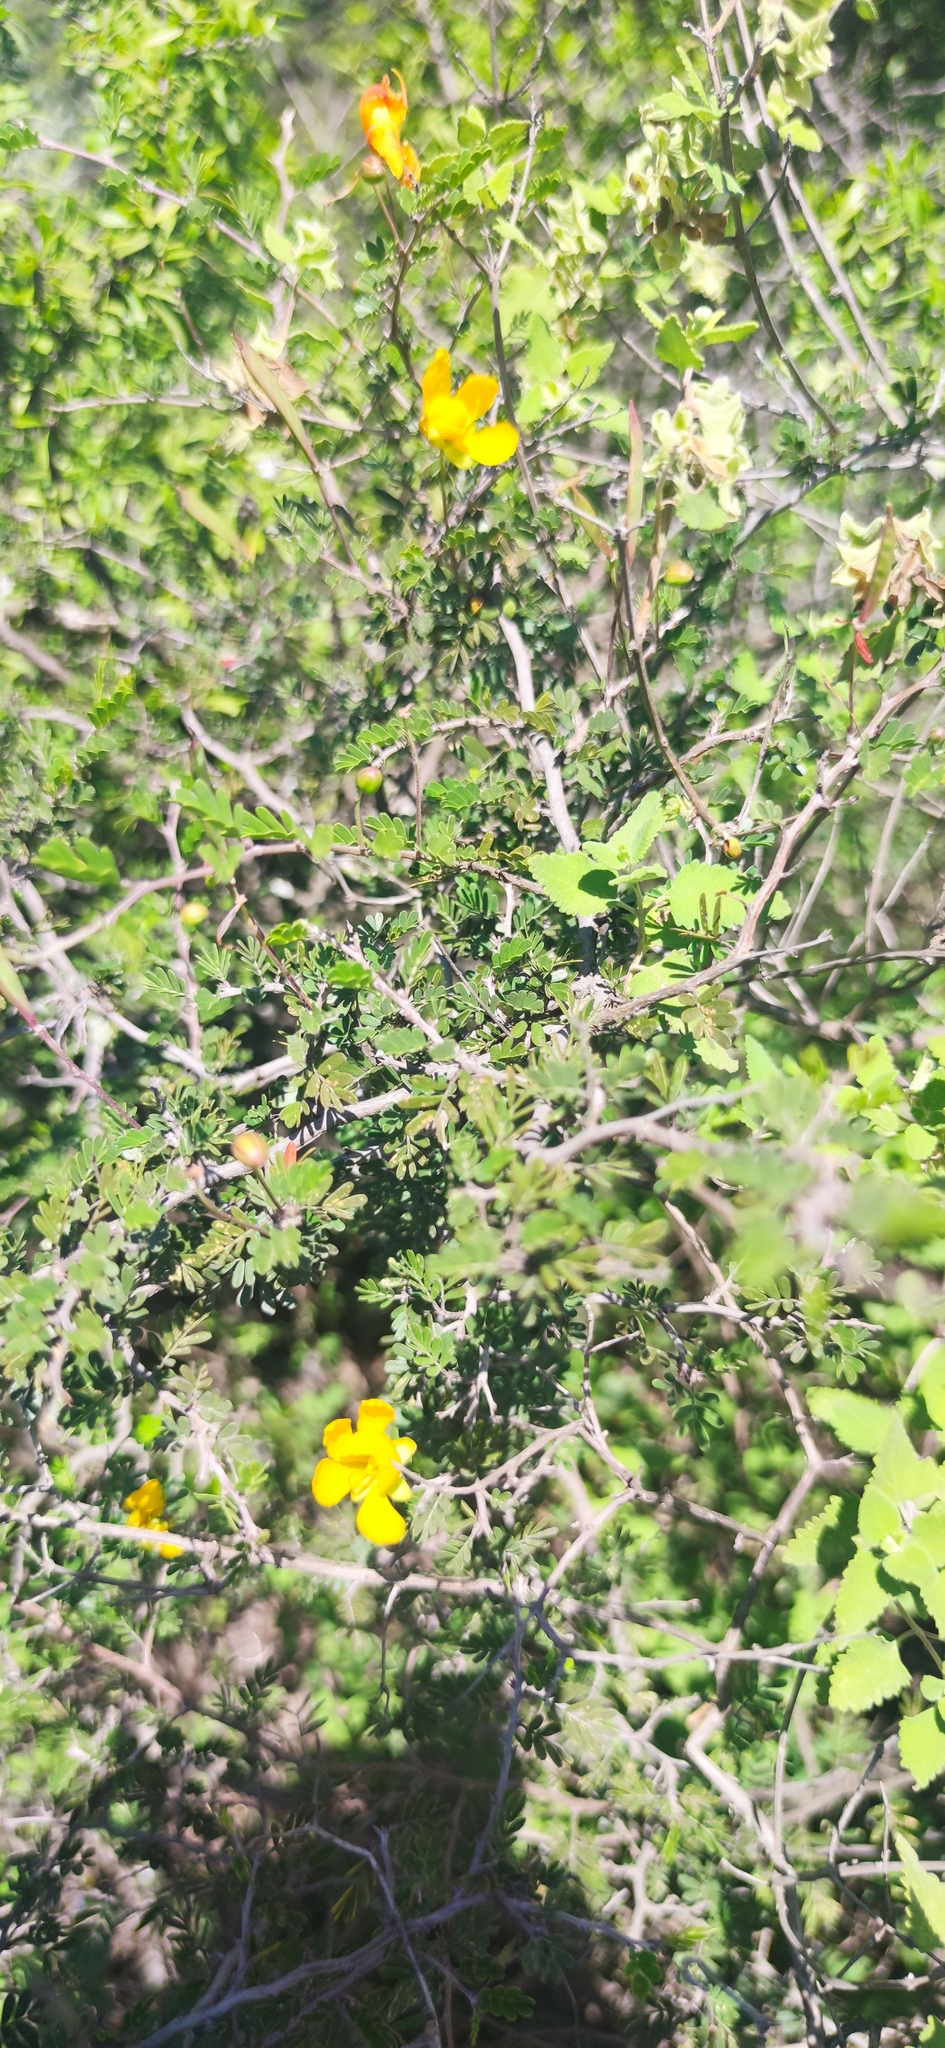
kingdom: Plantae
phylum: Tracheophyta
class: Magnoliopsida
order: Fabales
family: Fabaceae
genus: Chamaecrista
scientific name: Chamaecrista greggii
